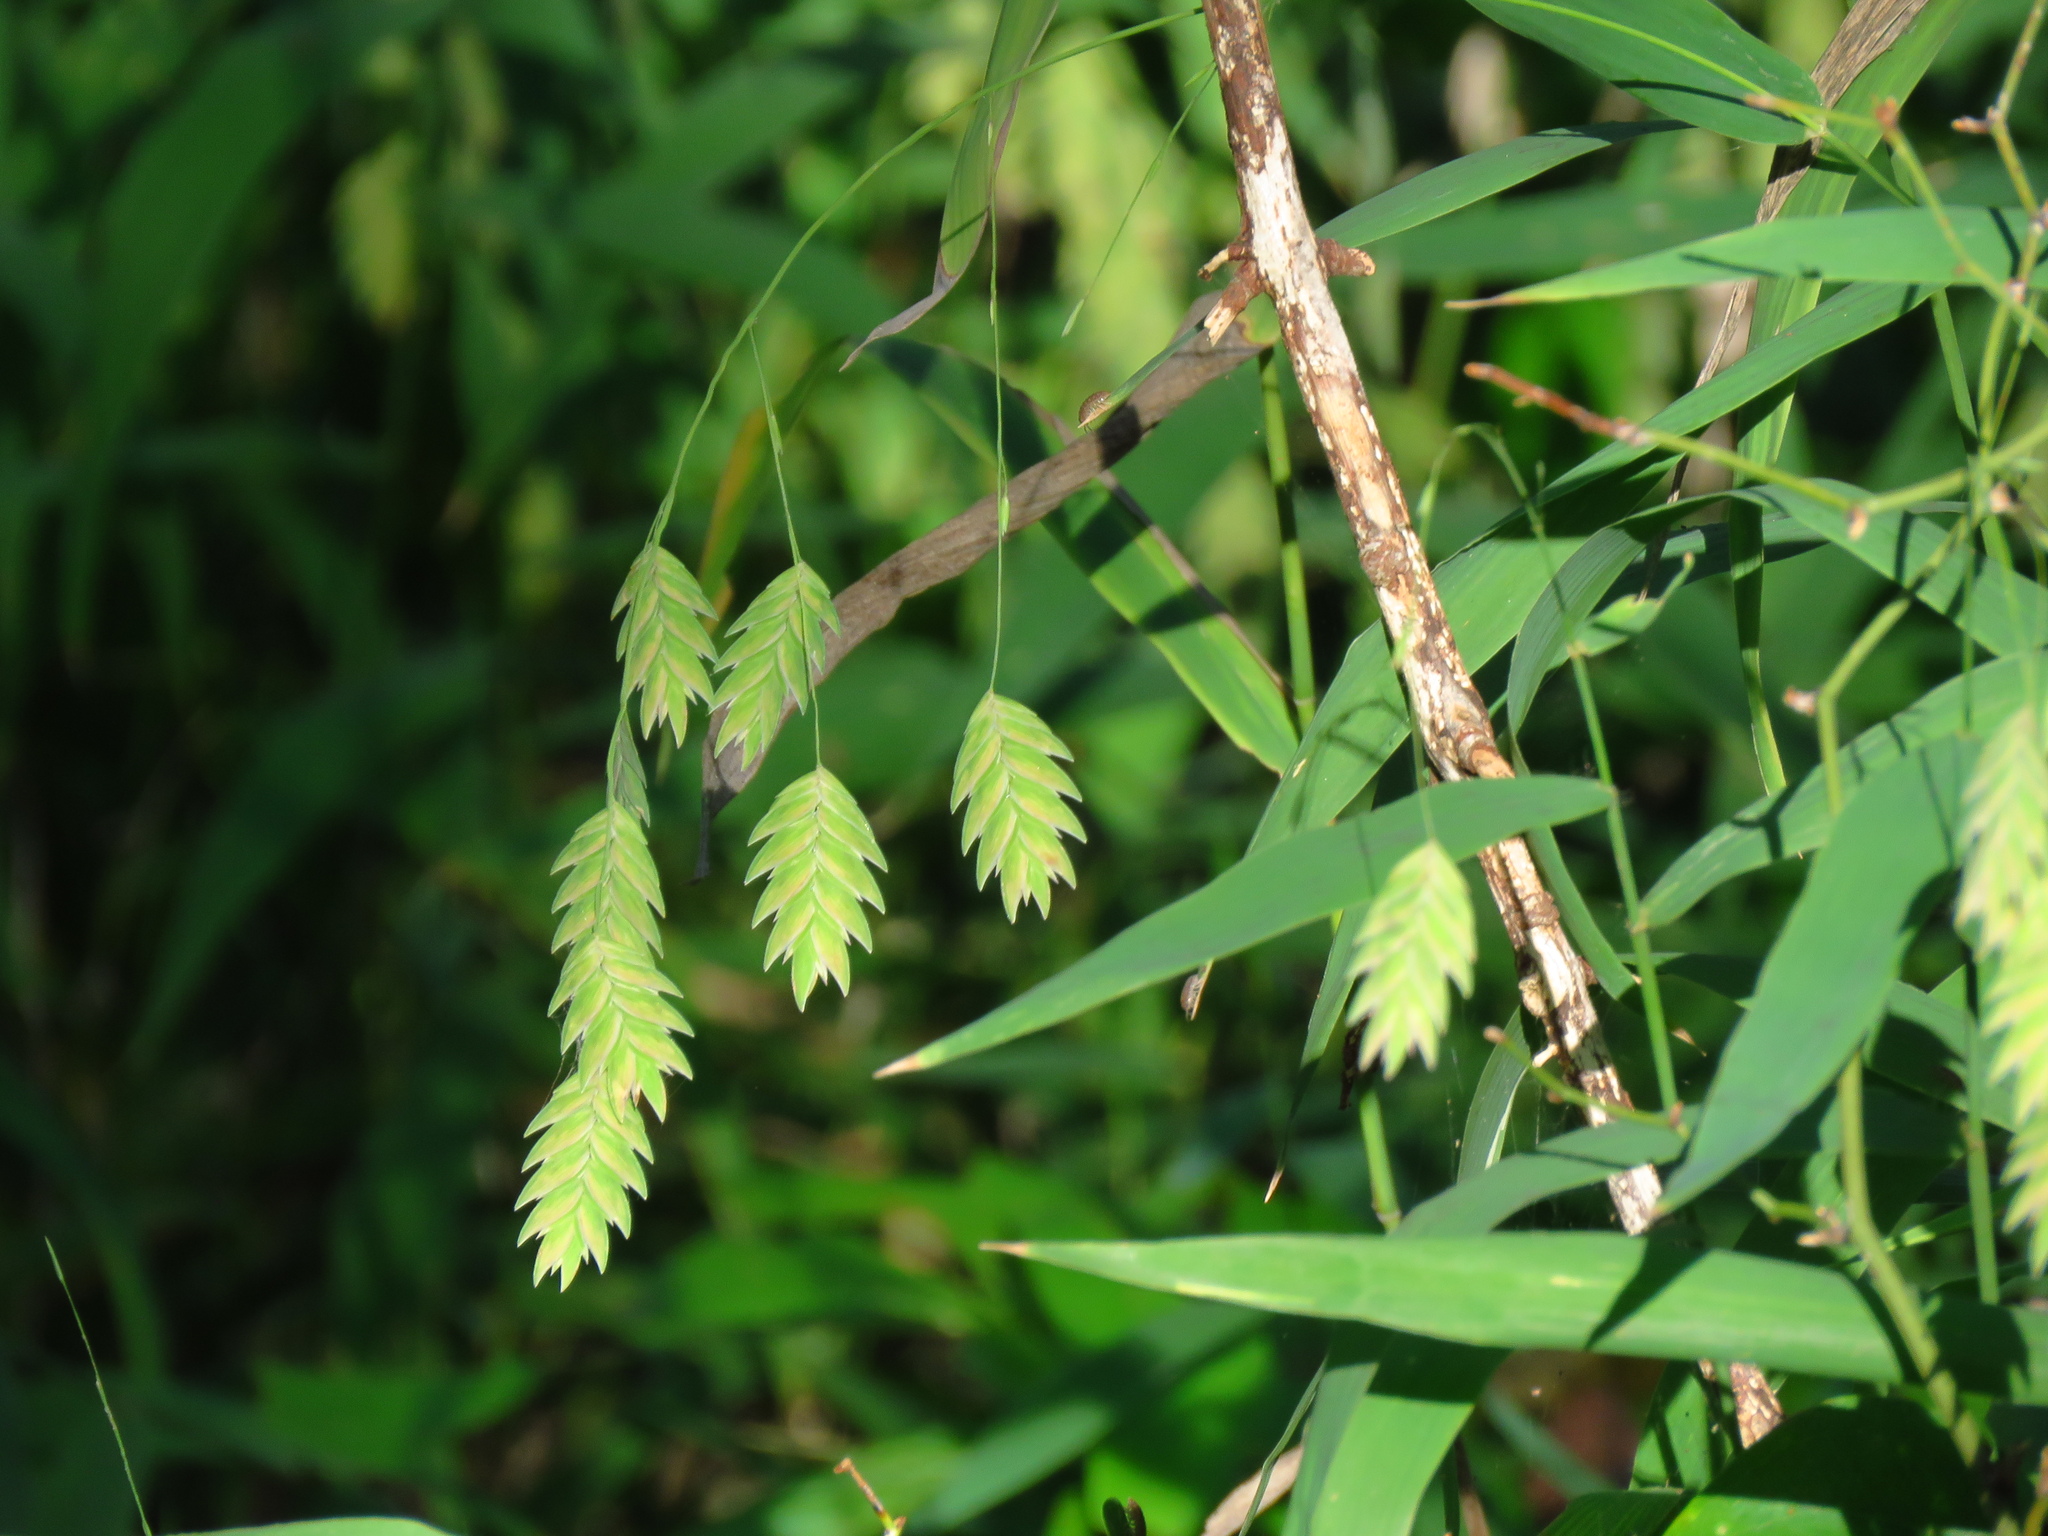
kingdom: Plantae
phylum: Tracheophyta
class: Liliopsida
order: Poales
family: Poaceae
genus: Chasmanthium
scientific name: Chasmanthium latifolium
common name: Broad-leaved chasmanthium
